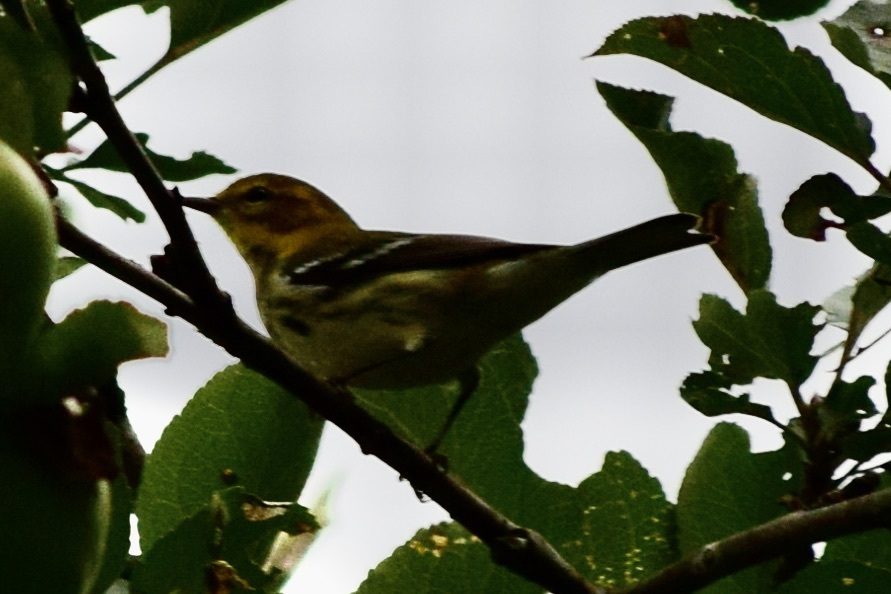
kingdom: Animalia
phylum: Chordata
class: Aves
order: Passeriformes
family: Parulidae
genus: Setophaga
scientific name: Setophaga tigrina
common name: Cape may warbler
